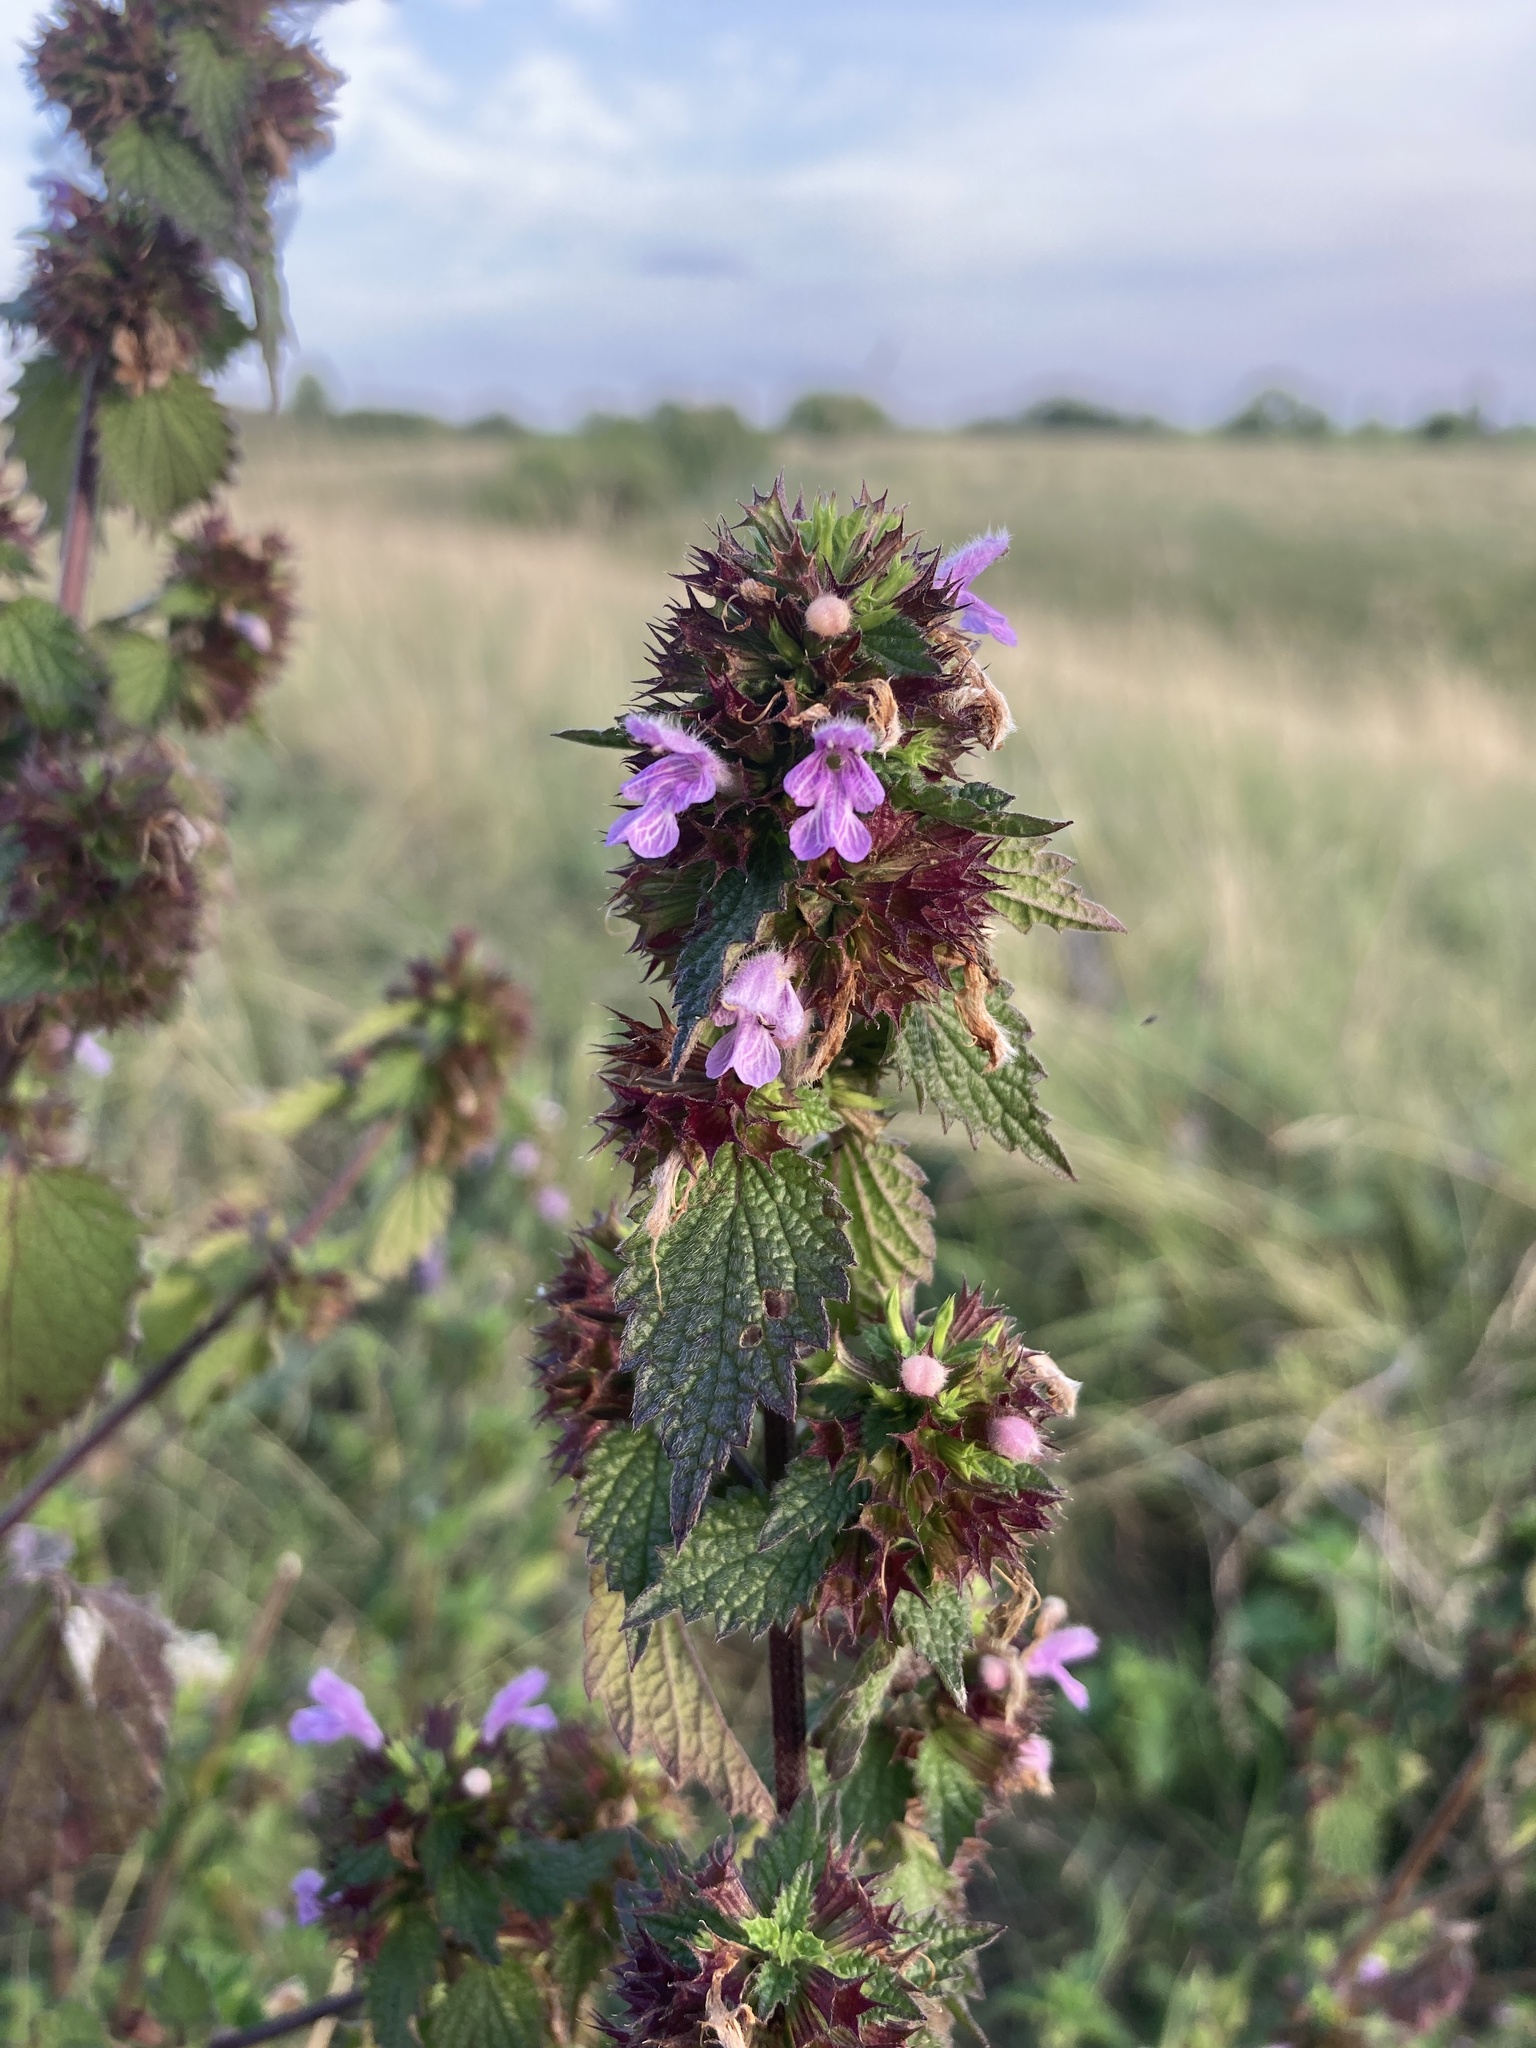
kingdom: Plantae
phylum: Tracheophyta
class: Magnoliopsida
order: Lamiales
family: Lamiaceae
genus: Ballota
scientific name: Ballota nigra
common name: Black horehound
